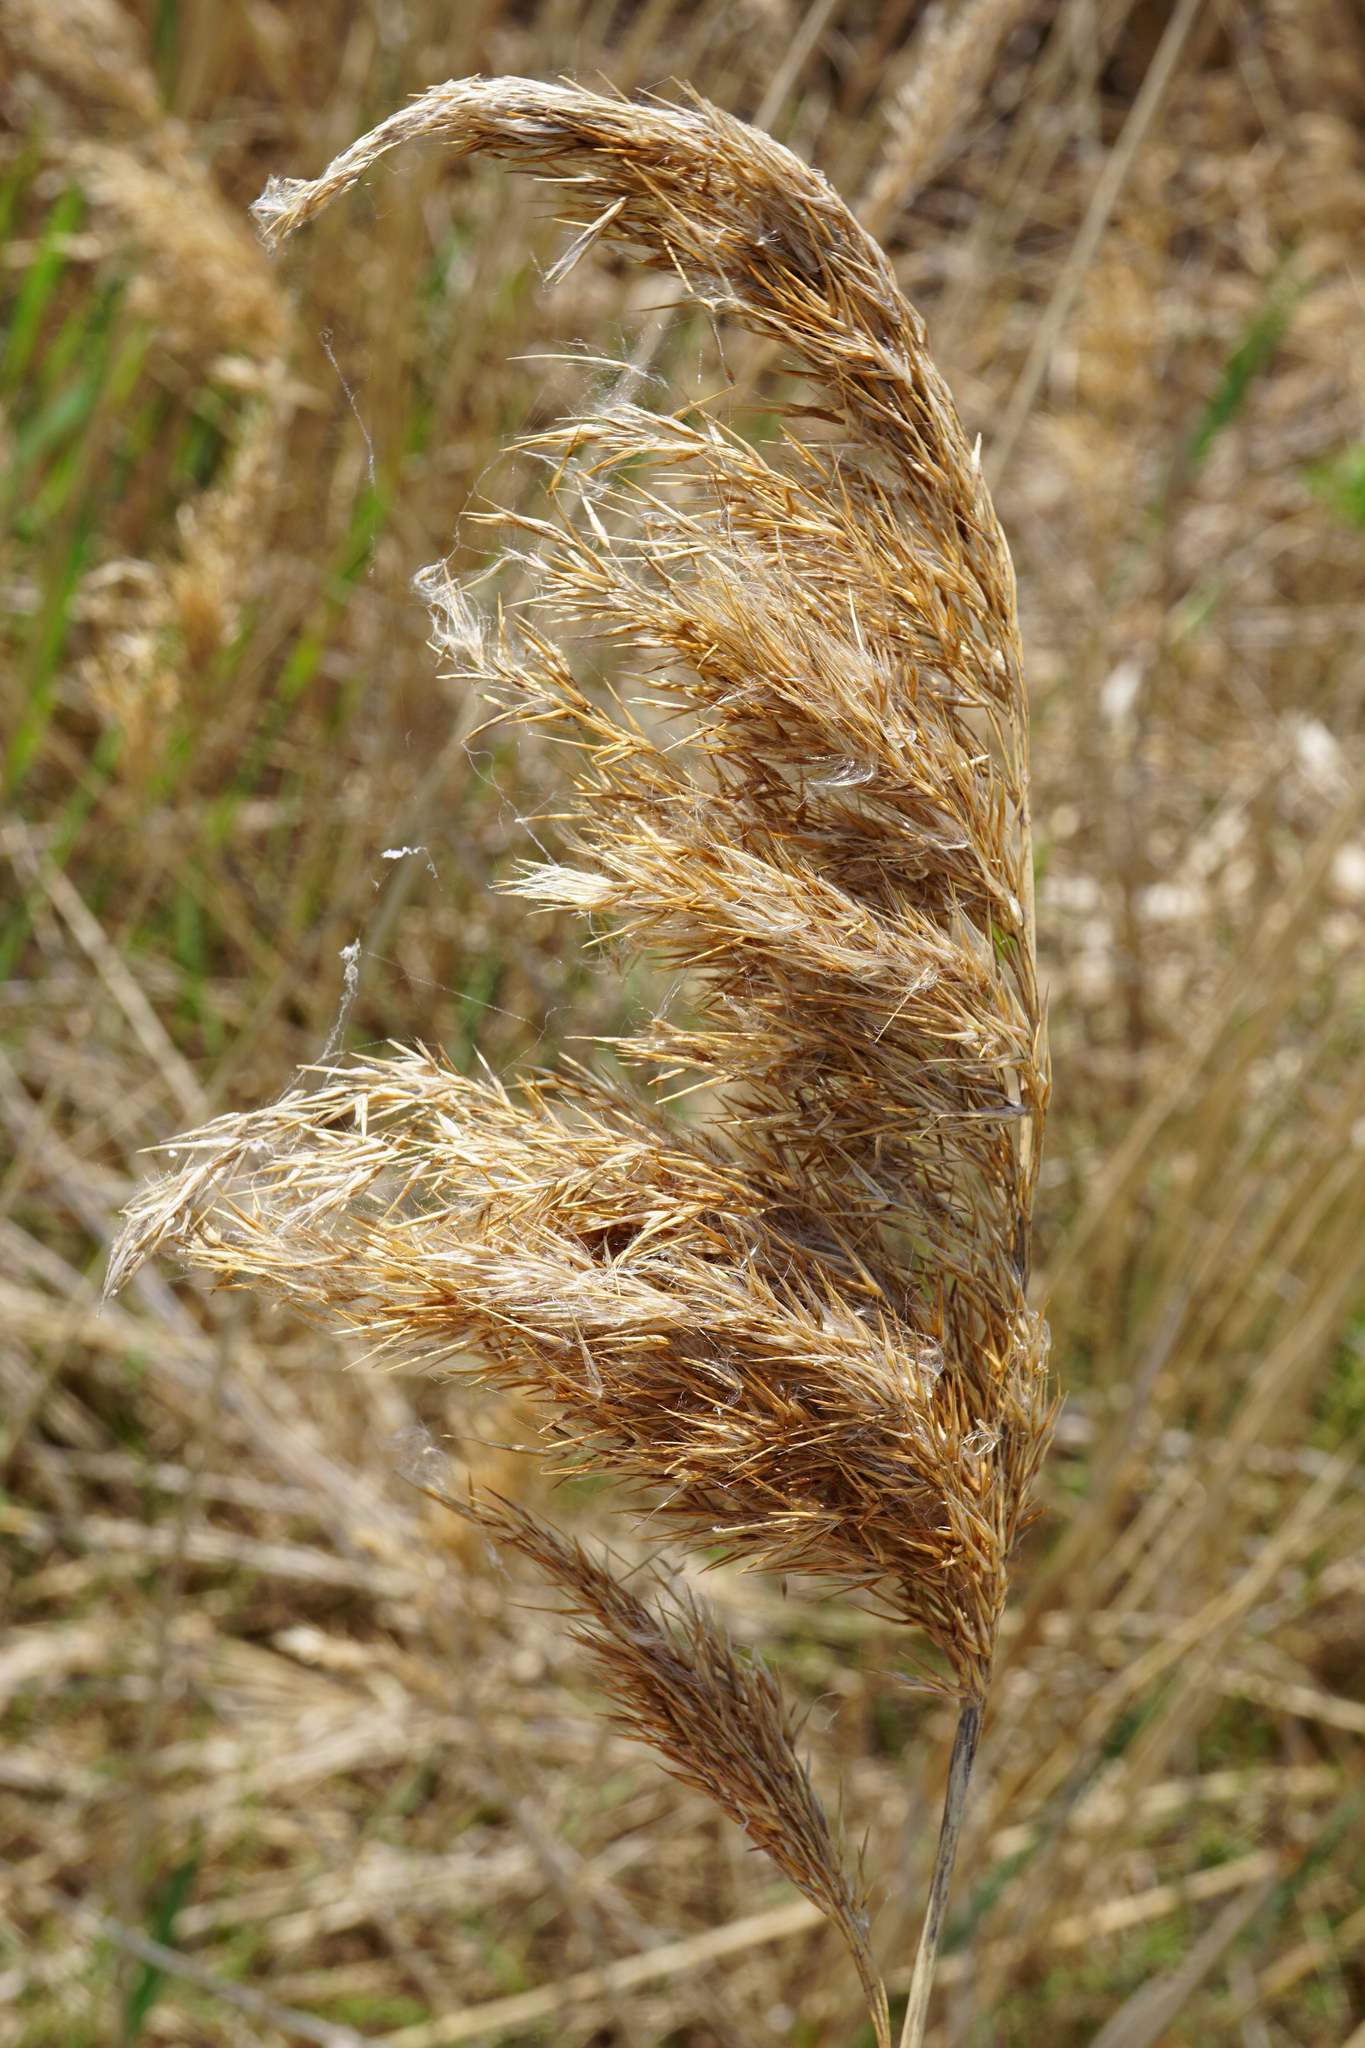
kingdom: Plantae
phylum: Tracheophyta
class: Liliopsida
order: Poales
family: Poaceae
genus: Phragmites
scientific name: Phragmites australis
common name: Common reed
